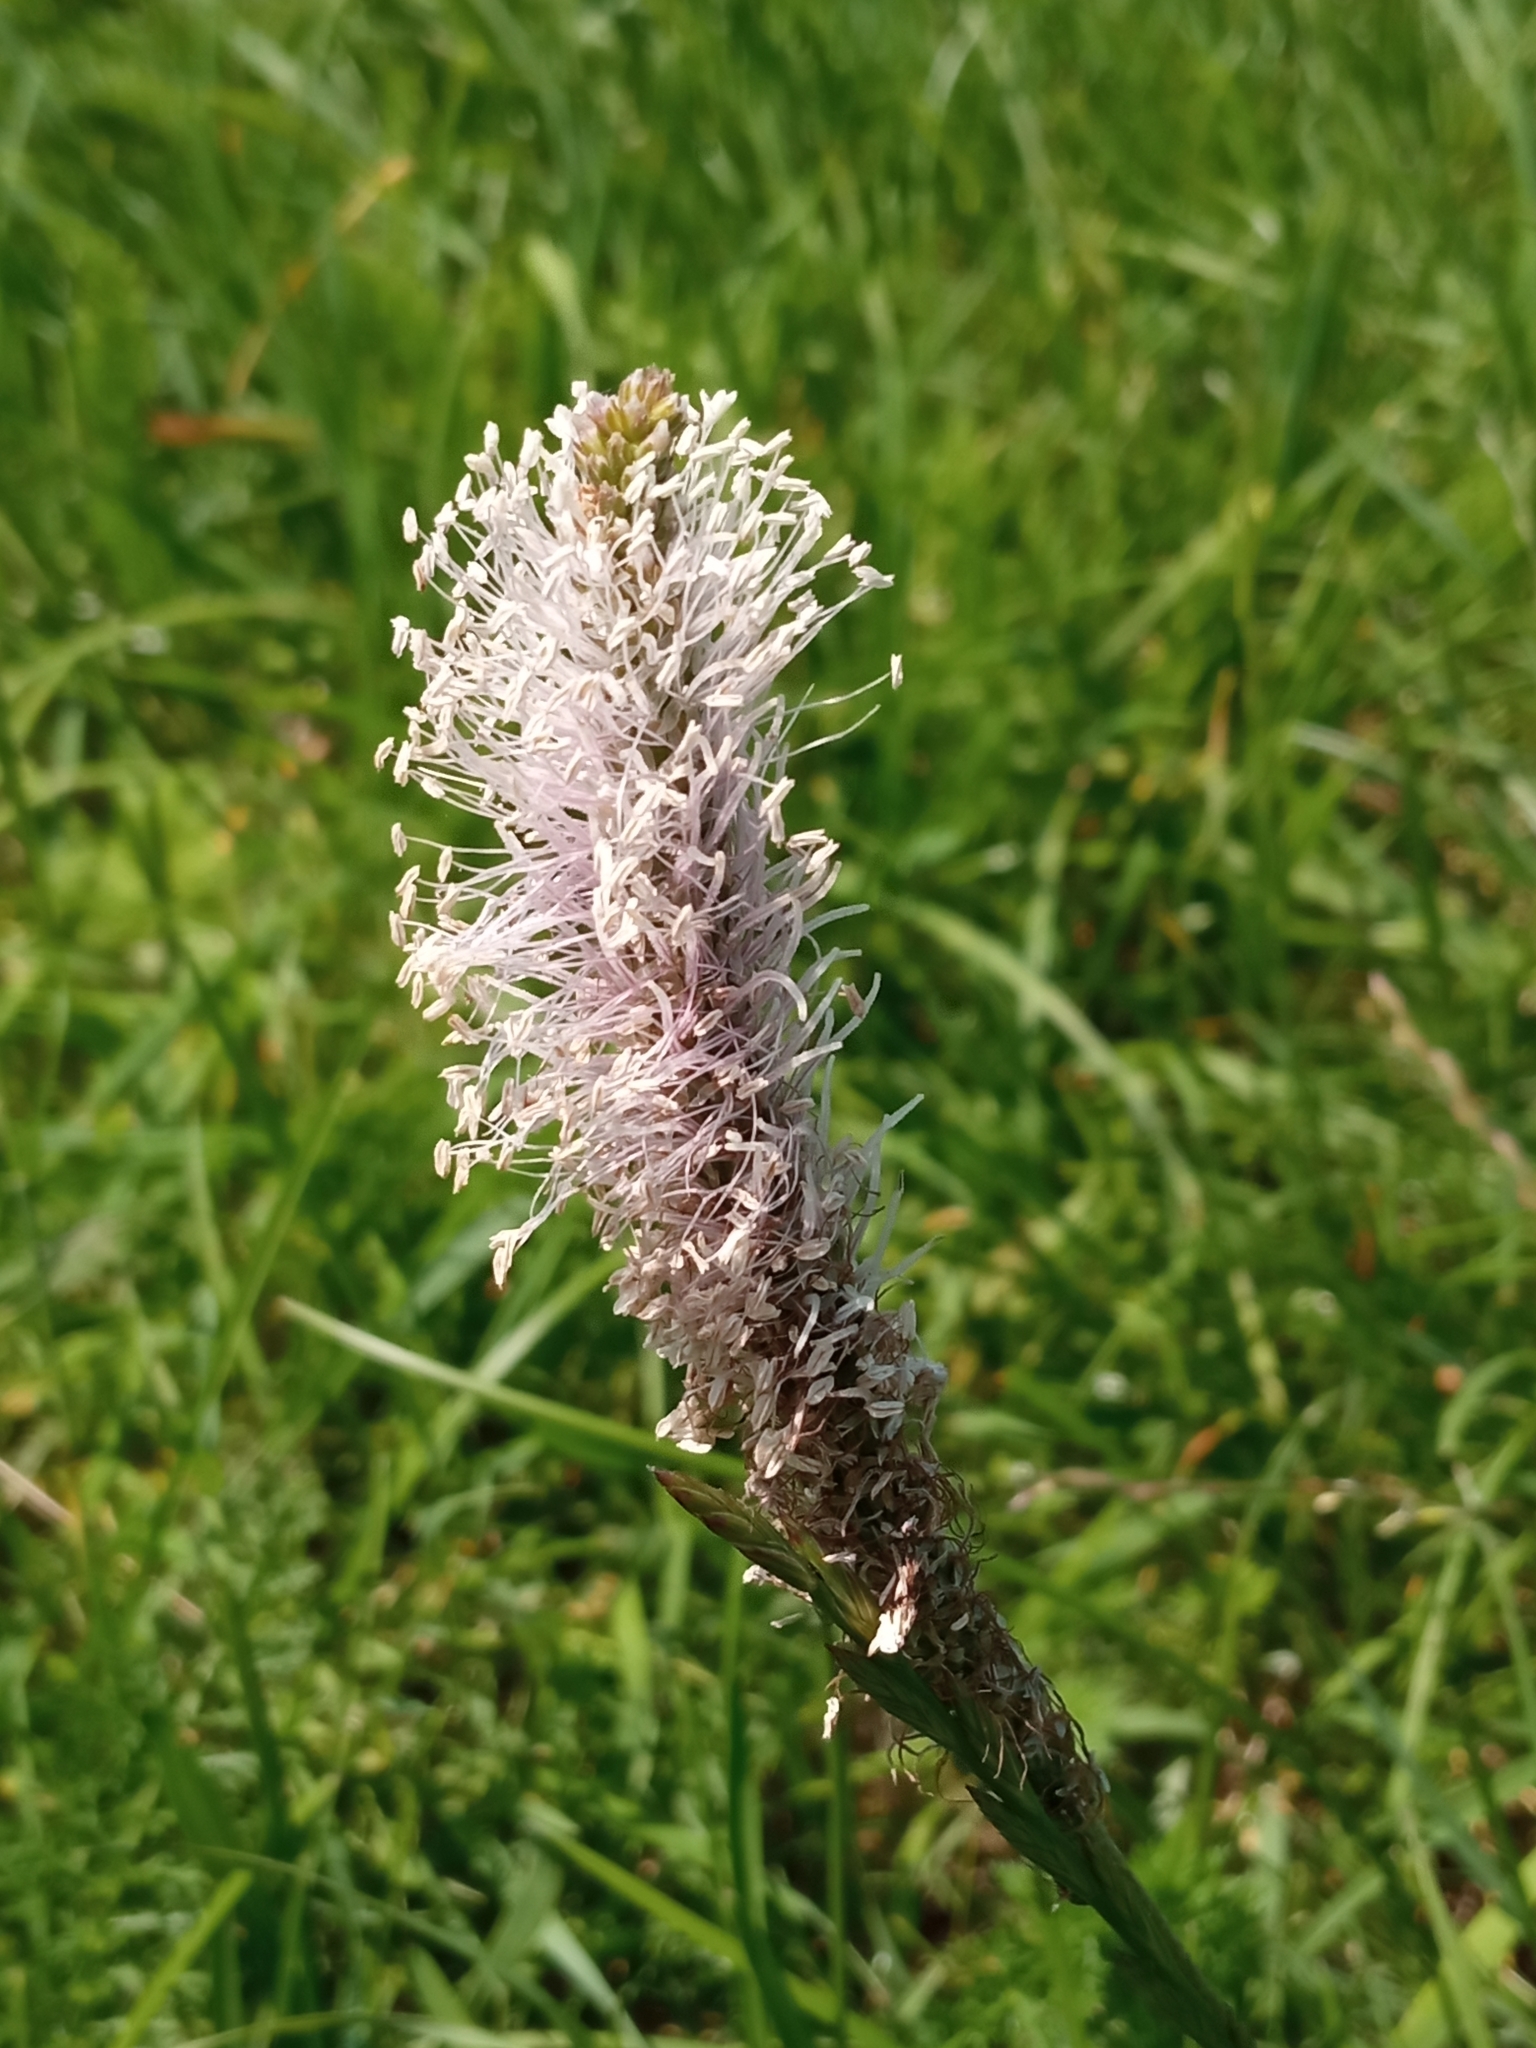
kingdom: Plantae
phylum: Tracheophyta
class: Magnoliopsida
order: Lamiales
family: Plantaginaceae
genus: Plantago
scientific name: Plantago media
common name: Hoary plantain
